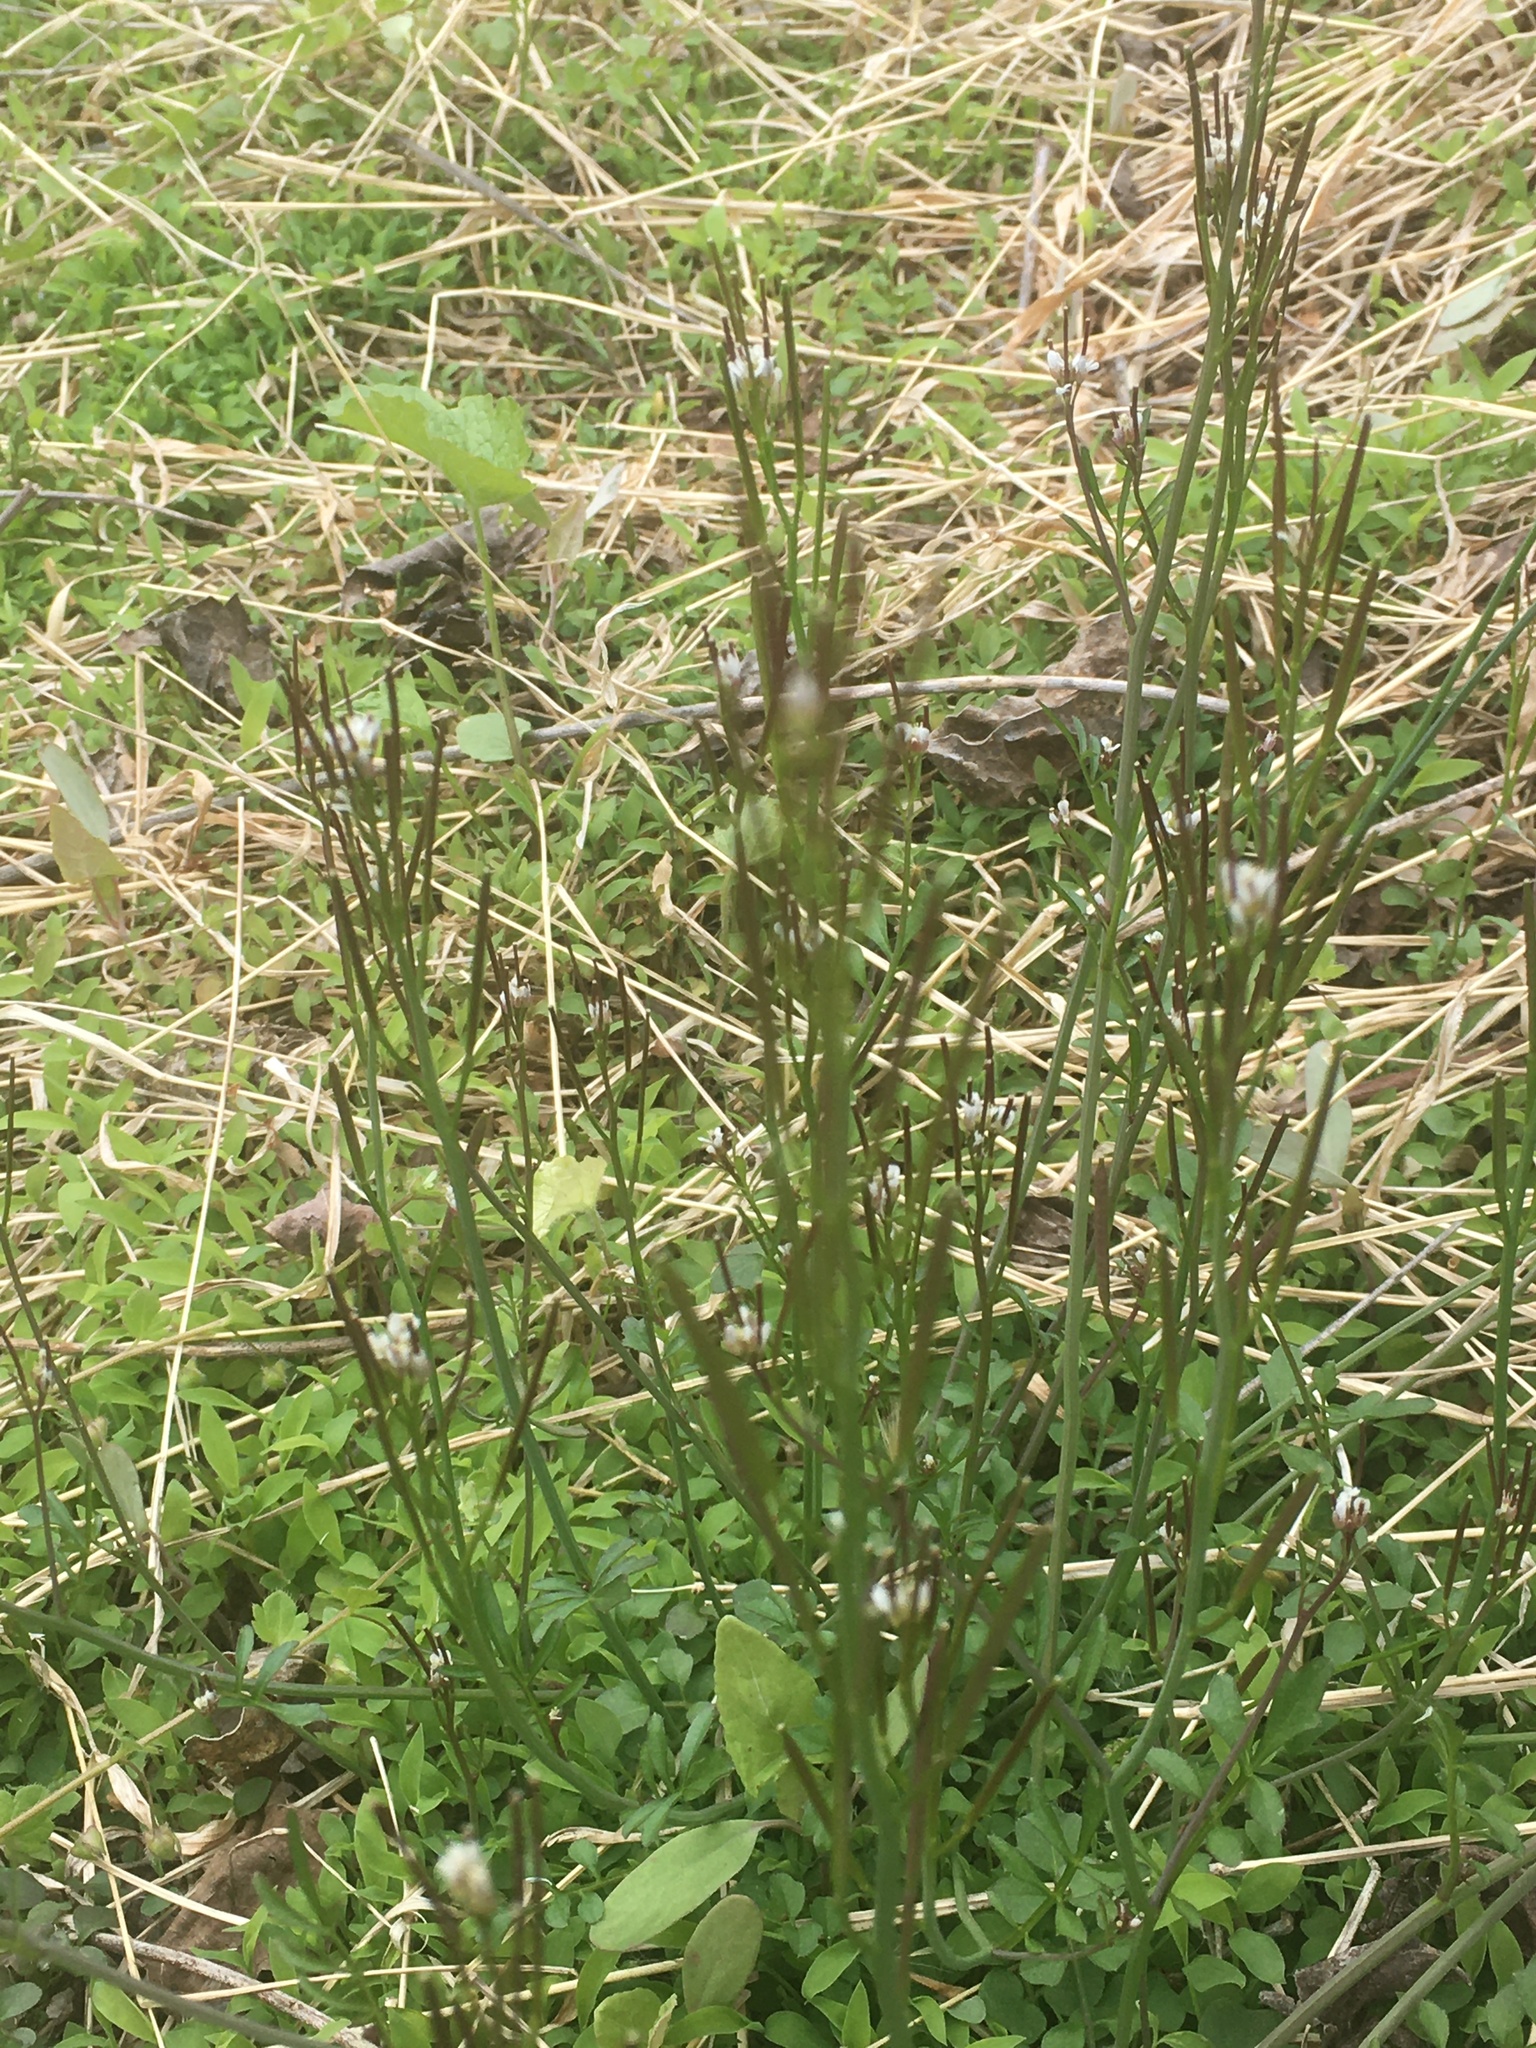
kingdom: Plantae
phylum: Tracheophyta
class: Magnoliopsida
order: Brassicales
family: Brassicaceae
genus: Cardamine
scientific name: Cardamine hirsuta
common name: Hairy bittercress
